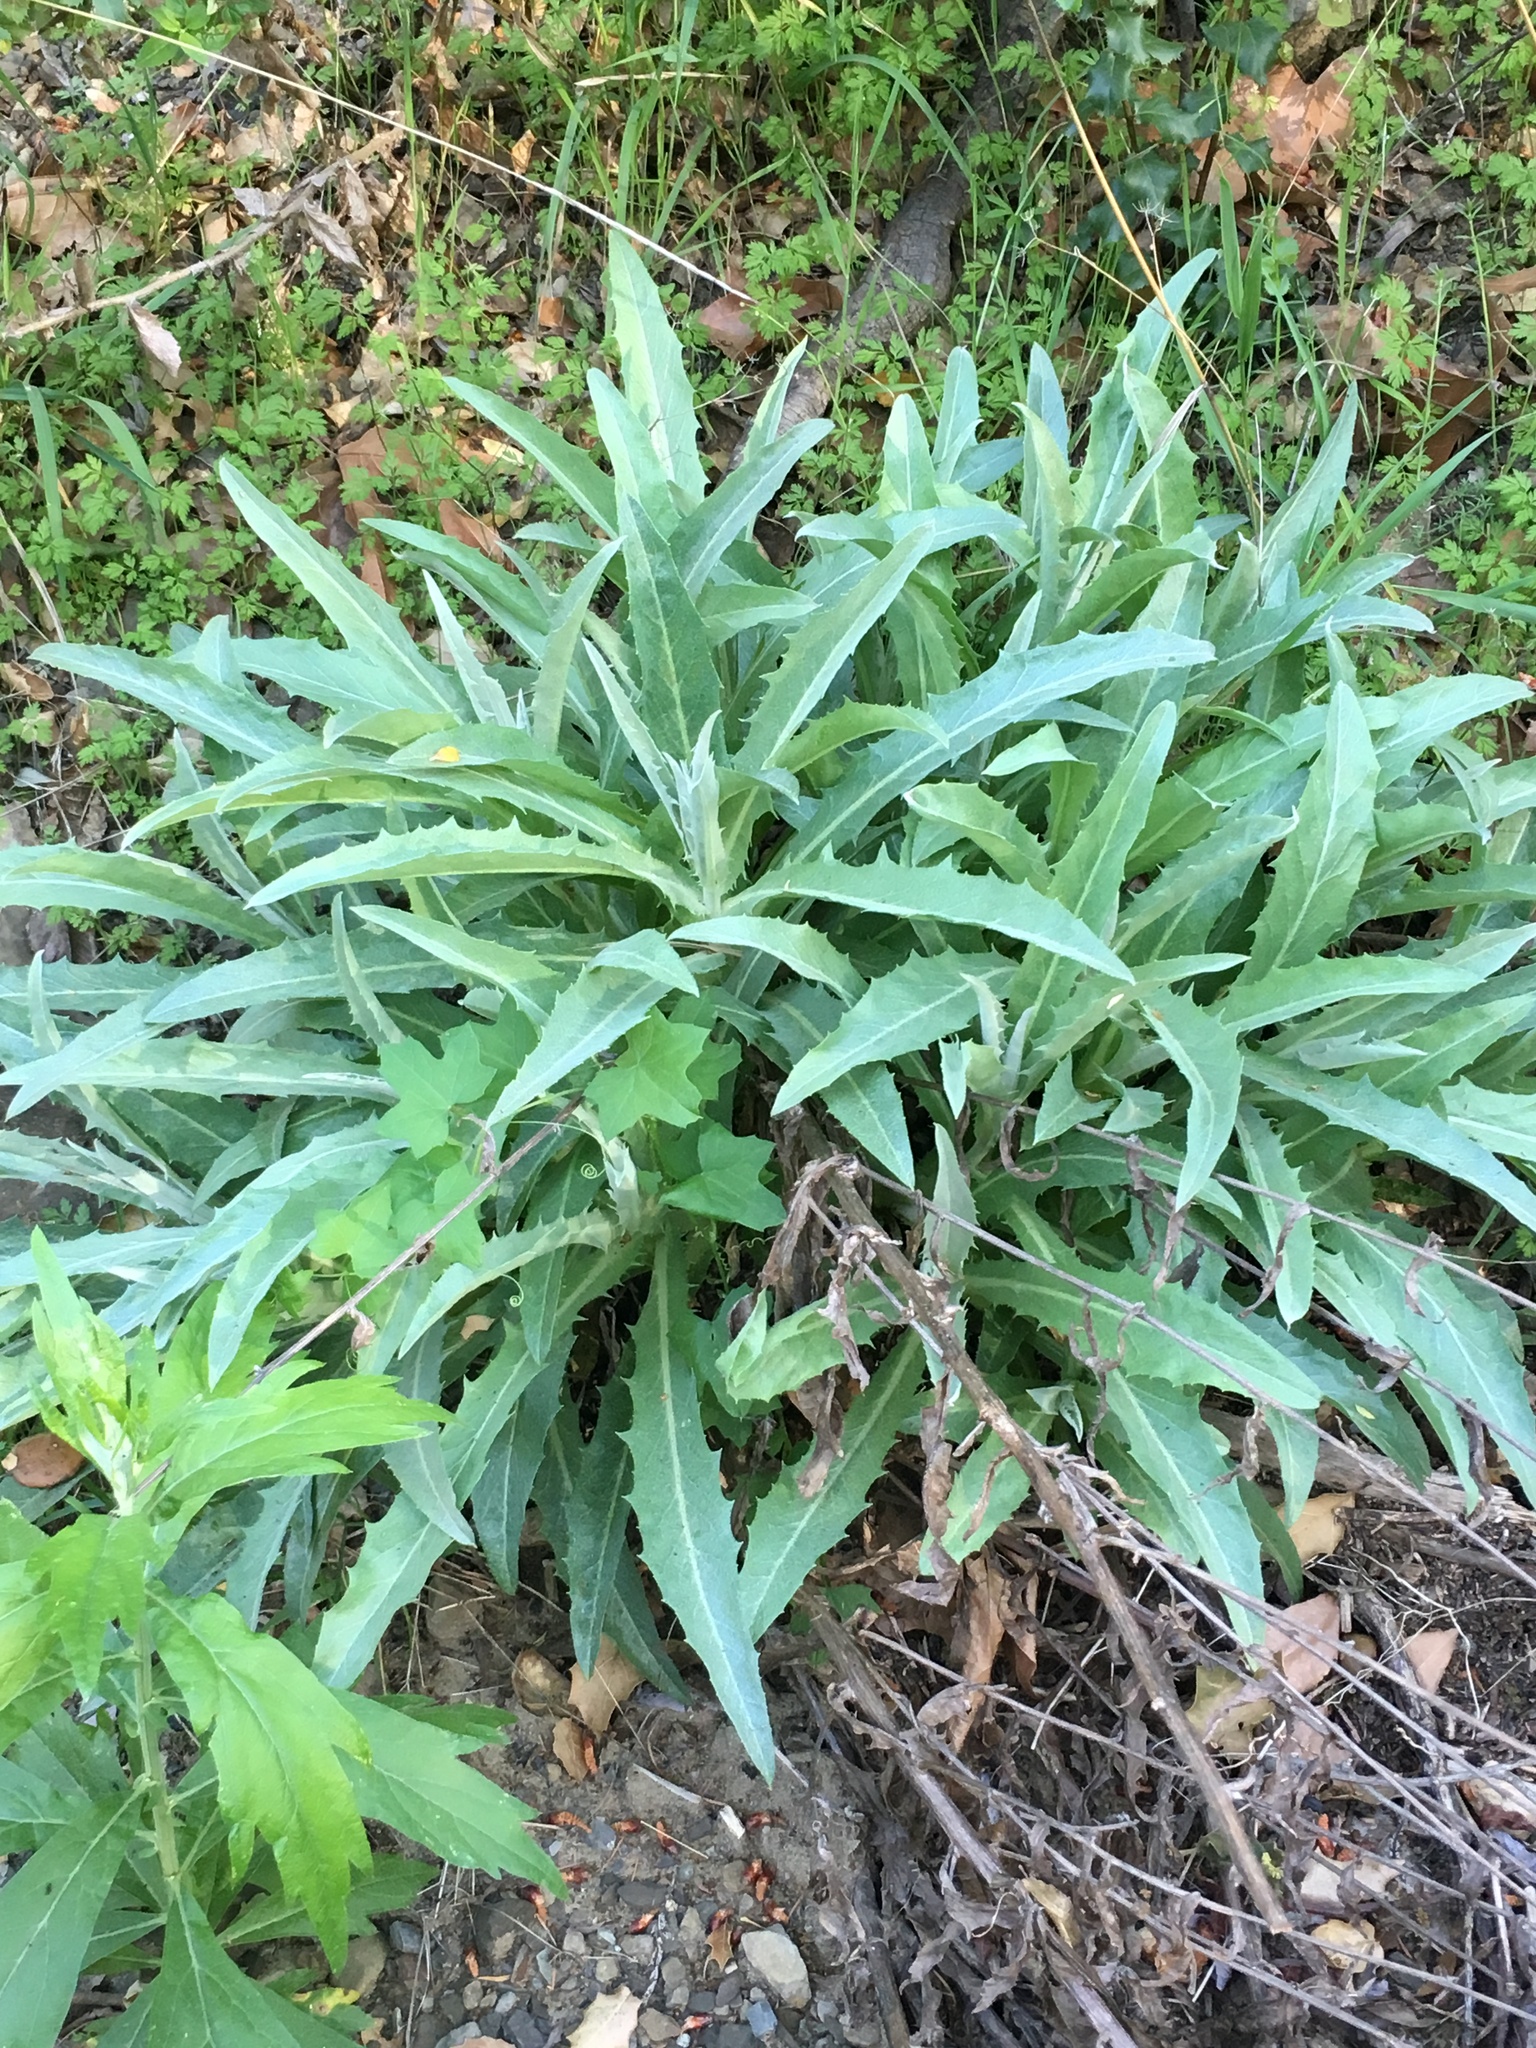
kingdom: Plantae
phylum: Tracheophyta
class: Magnoliopsida
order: Asterales
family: Asteraceae
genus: Stephanomeria
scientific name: Stephanomeria cichoriacea
